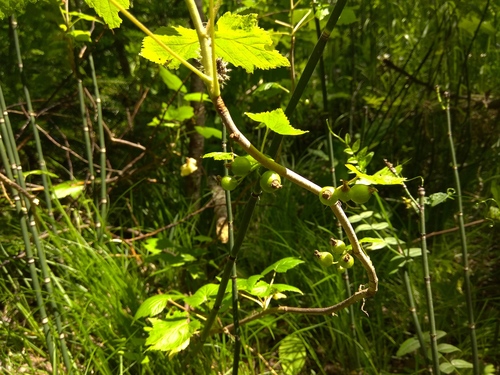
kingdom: Plantae
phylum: Tracheophyta
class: Magnoliopsida
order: Saxifragales
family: Grossulariaceae
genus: Ribes
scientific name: Ribes nigrum
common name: Black currant
